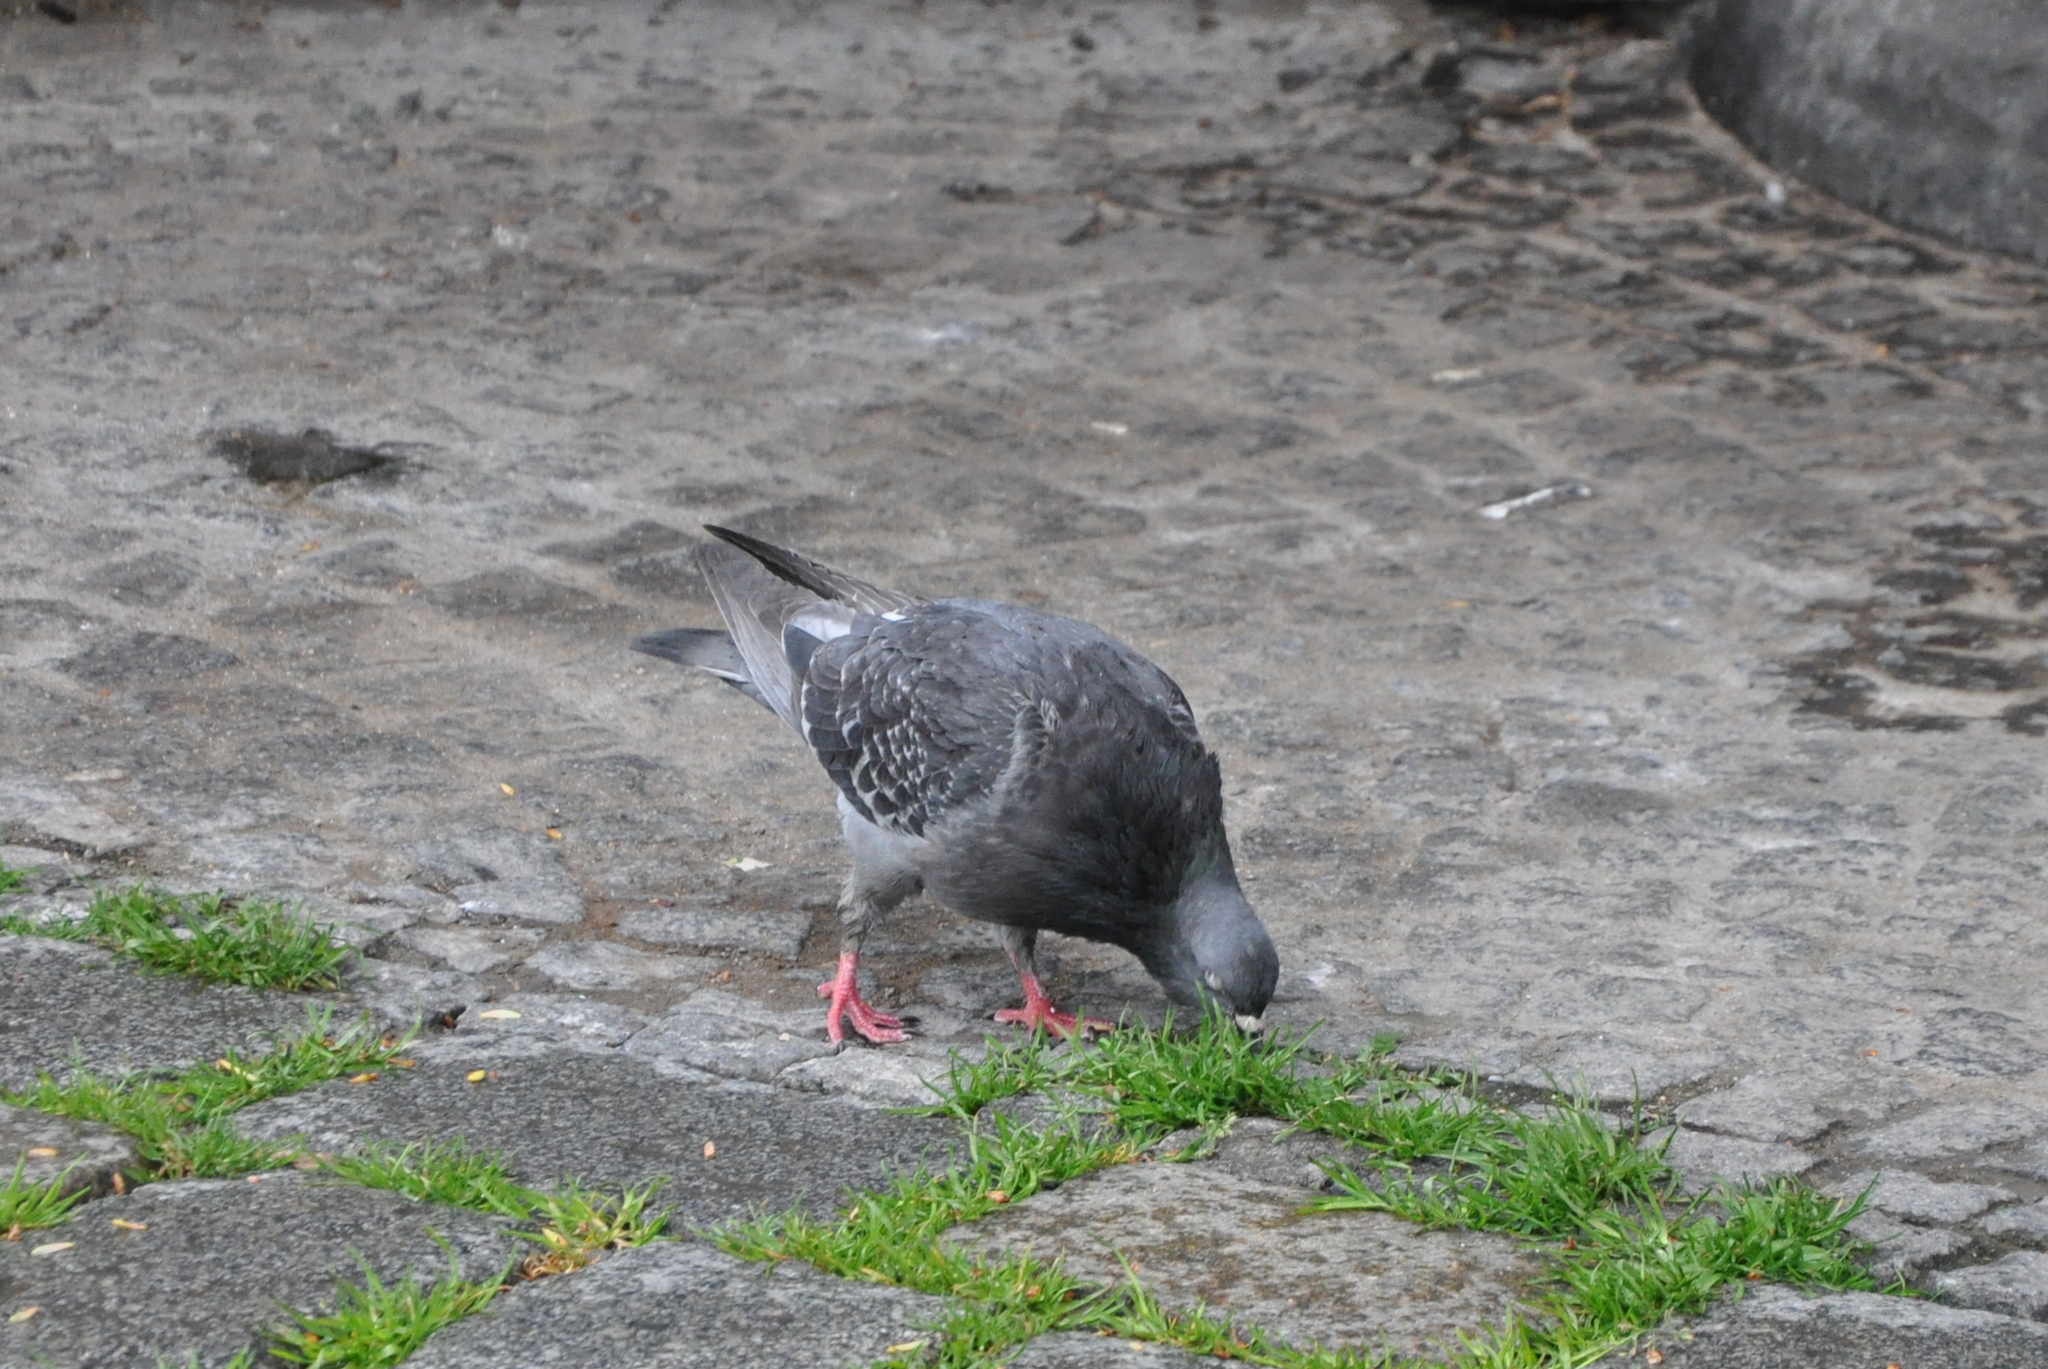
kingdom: Animalia
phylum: Chordata
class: Aves
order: Columbiformes
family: Columbidae
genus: Columba
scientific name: Columba livia
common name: Rock pigeon
